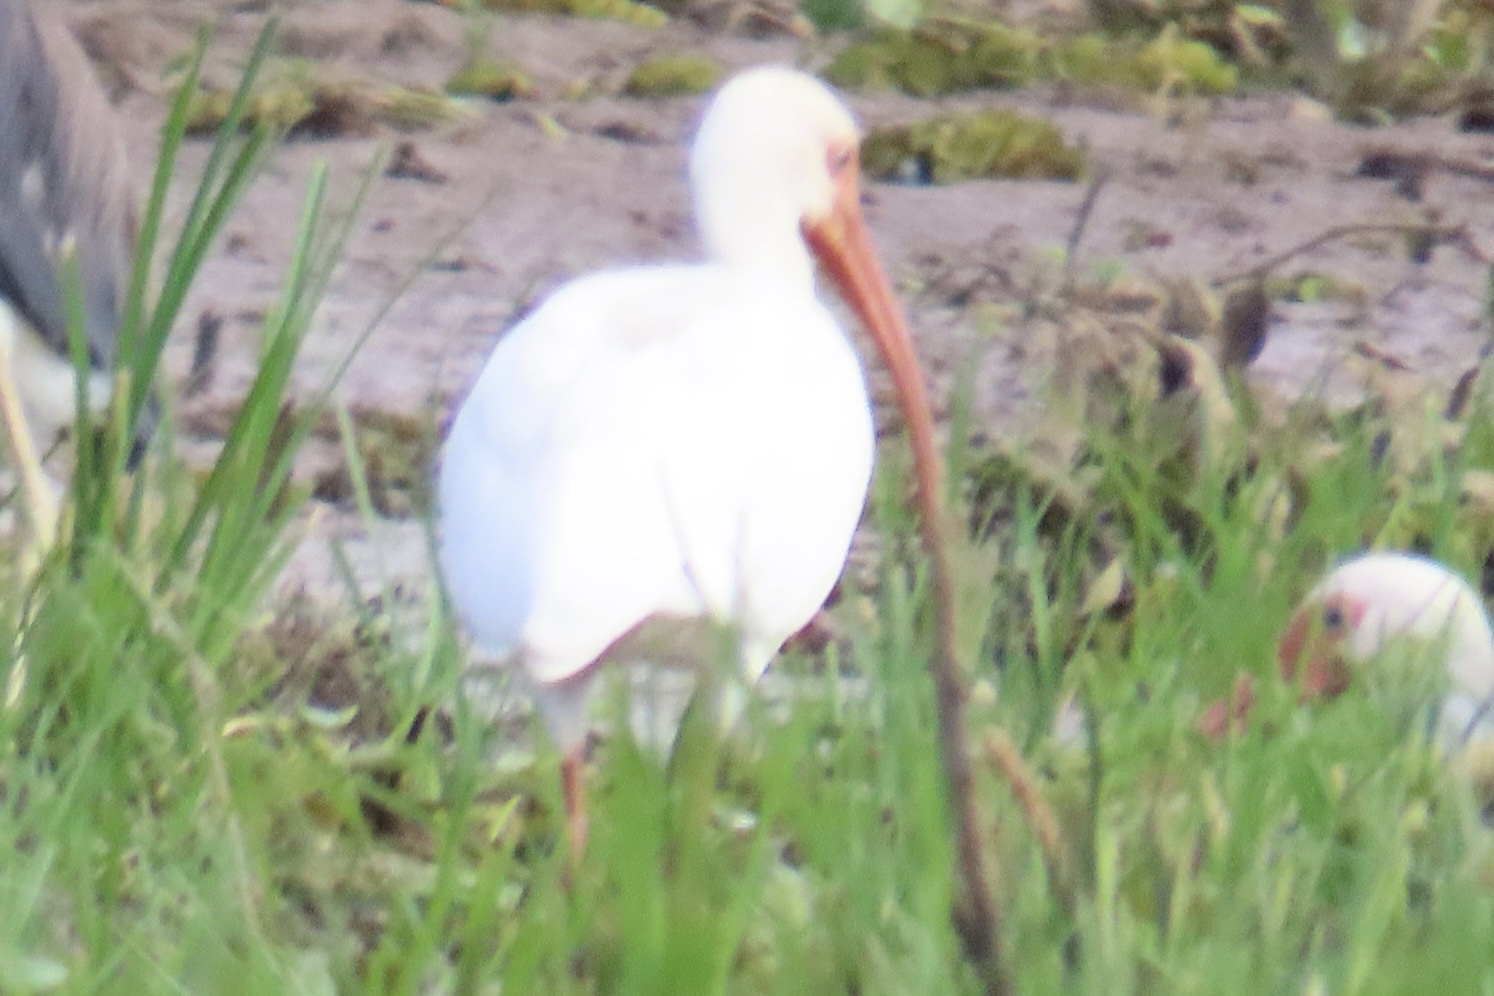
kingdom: Animalia
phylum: Chordata
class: Aves
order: Pelecaniformes
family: Threskiornithidae
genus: Eudocimus
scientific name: Eudocimus albus
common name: White ibis
